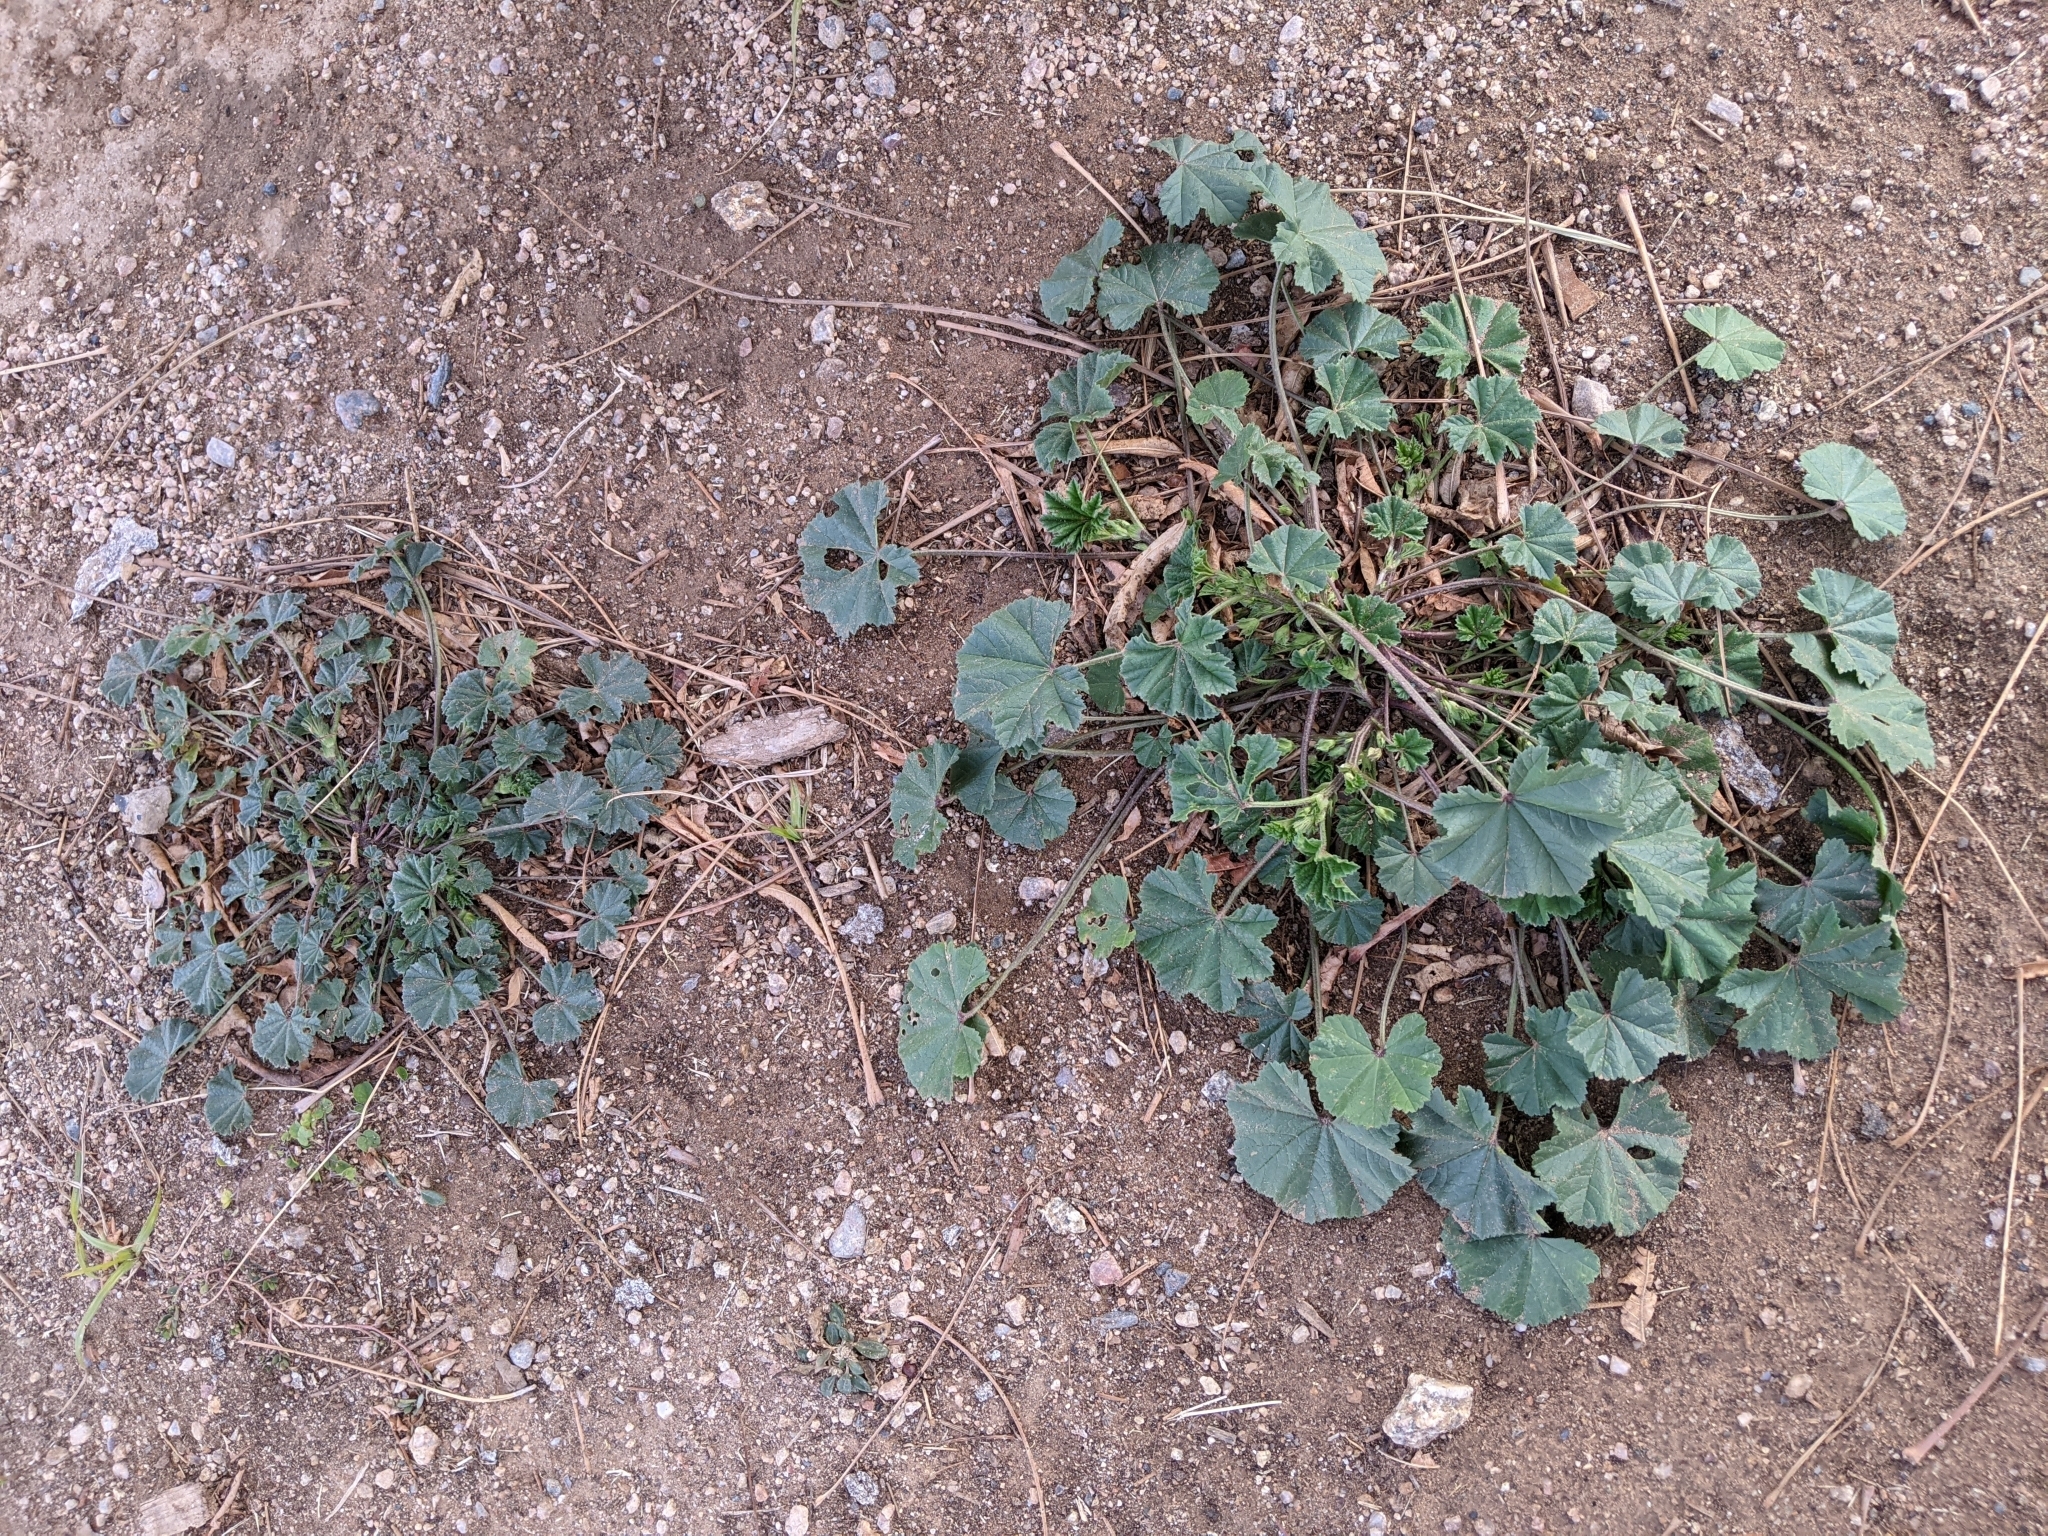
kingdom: Plantae
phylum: Tracheophyta
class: Magnoliopsida
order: Malvales
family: Malvaceae
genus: Malva
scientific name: Malva parviflora
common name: Least mallow
